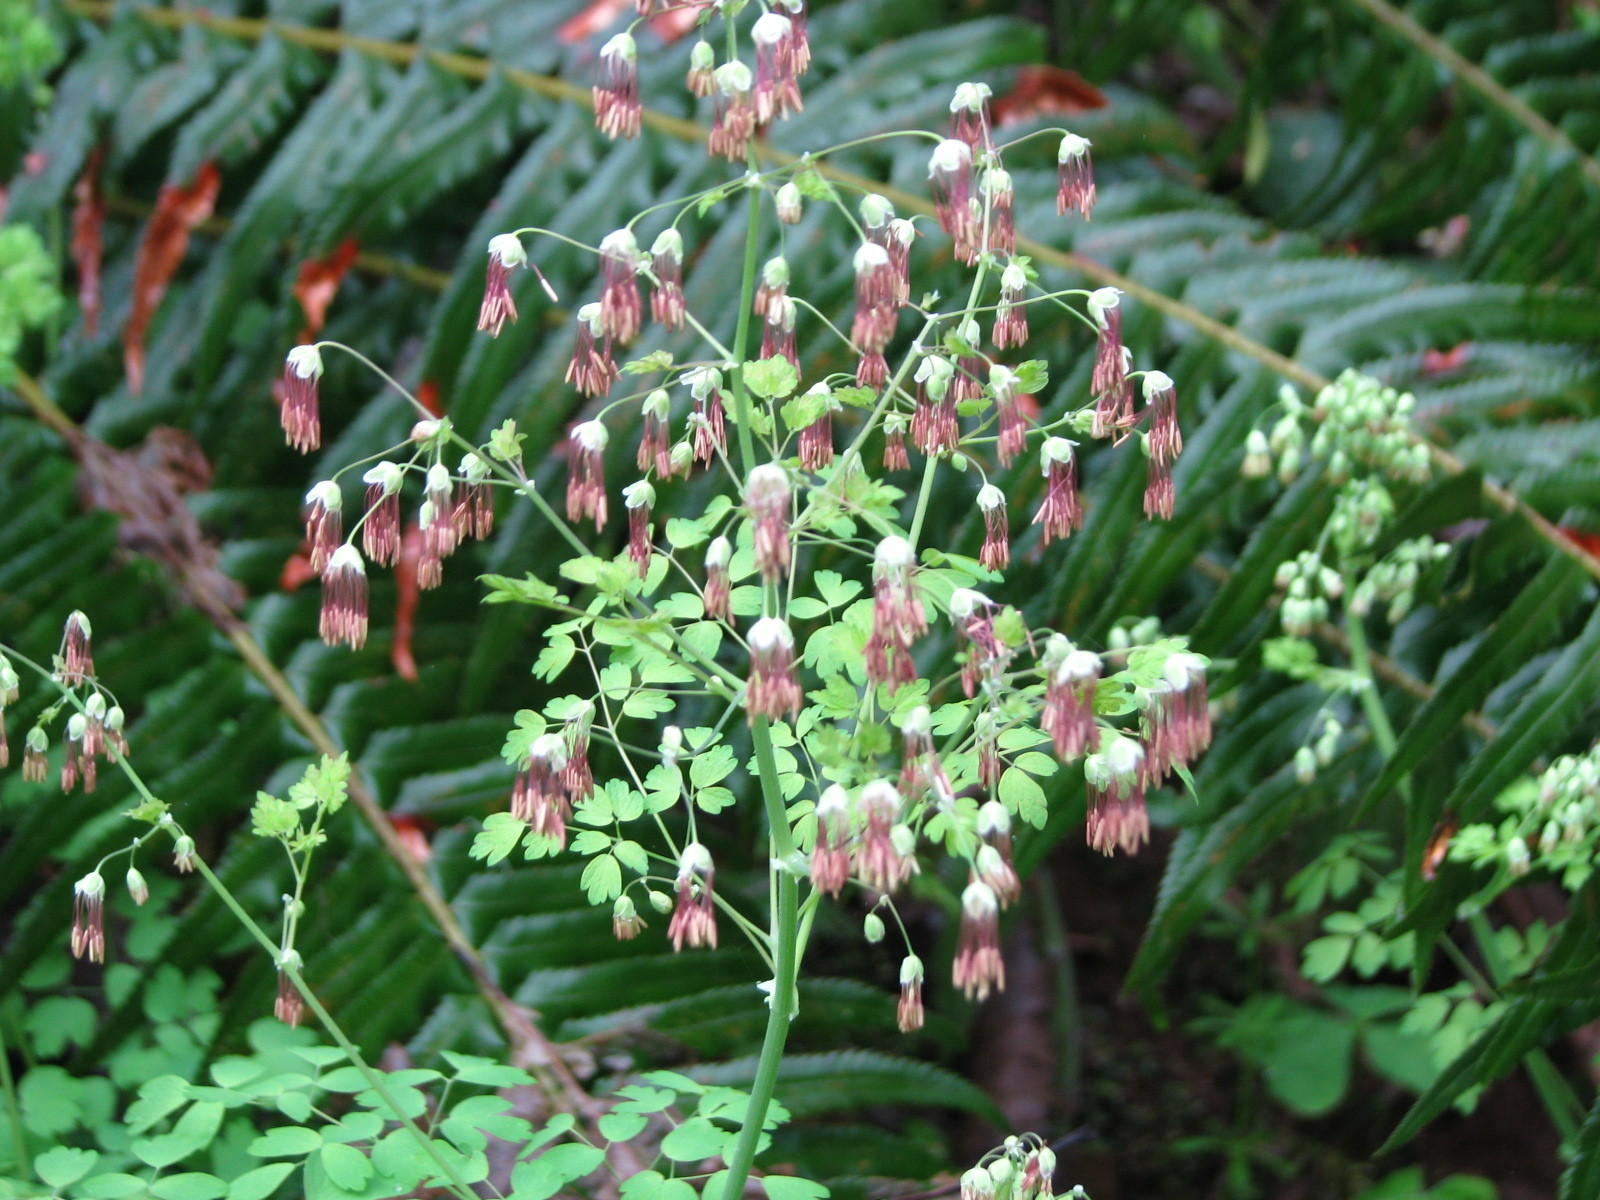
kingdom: Plantae
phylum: Tracheophyta
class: Magnoliopsida
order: Ranunculales
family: Ranunculaceae
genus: Thalictrum
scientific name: Thalictrum occidentale
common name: Western meadow-rue
